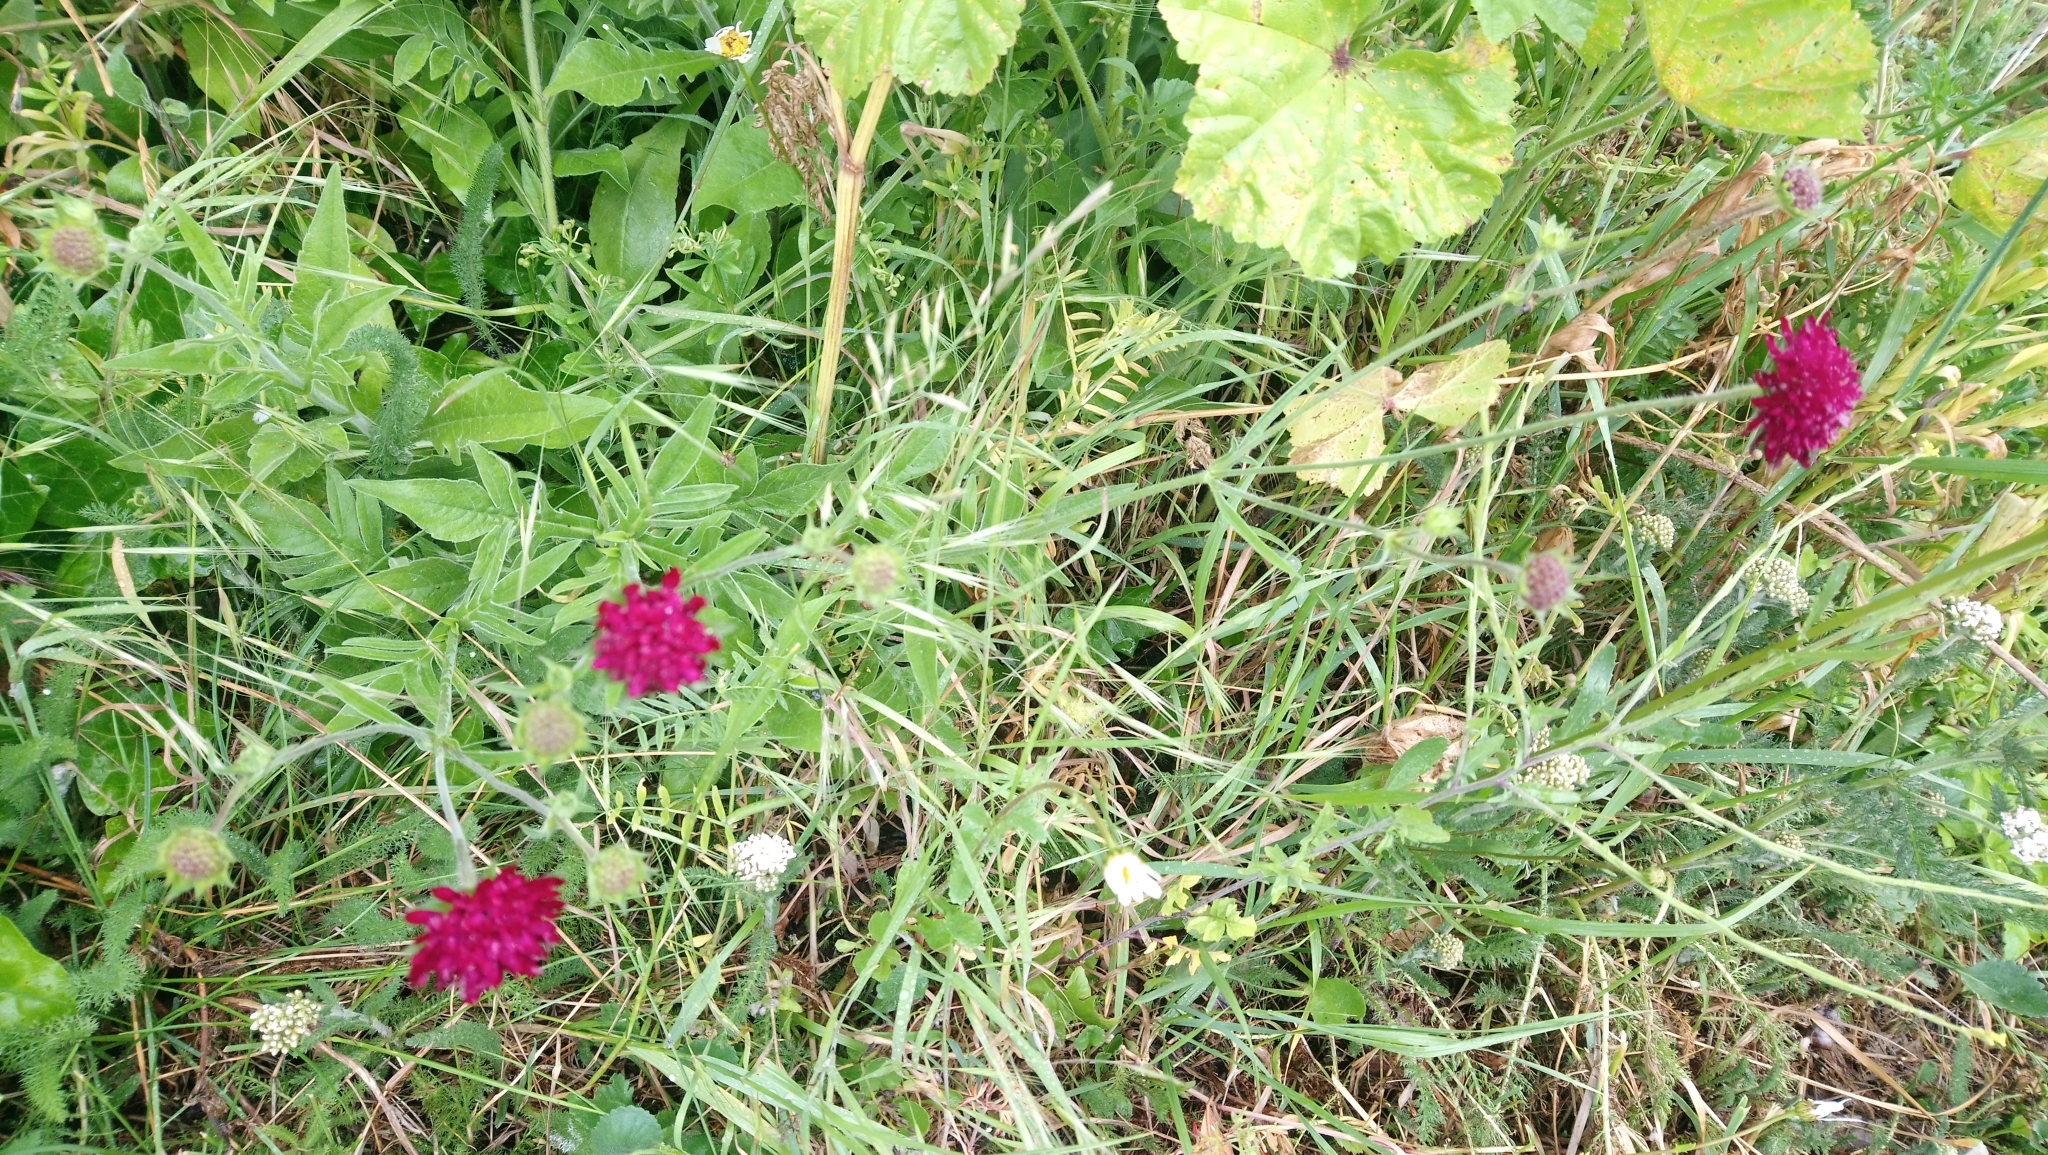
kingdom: Plantae
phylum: Tracheophyta
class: Magnoliopsida
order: Dipsacales
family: Caprifoliaceae
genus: Knautia
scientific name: Knautia macedonica
